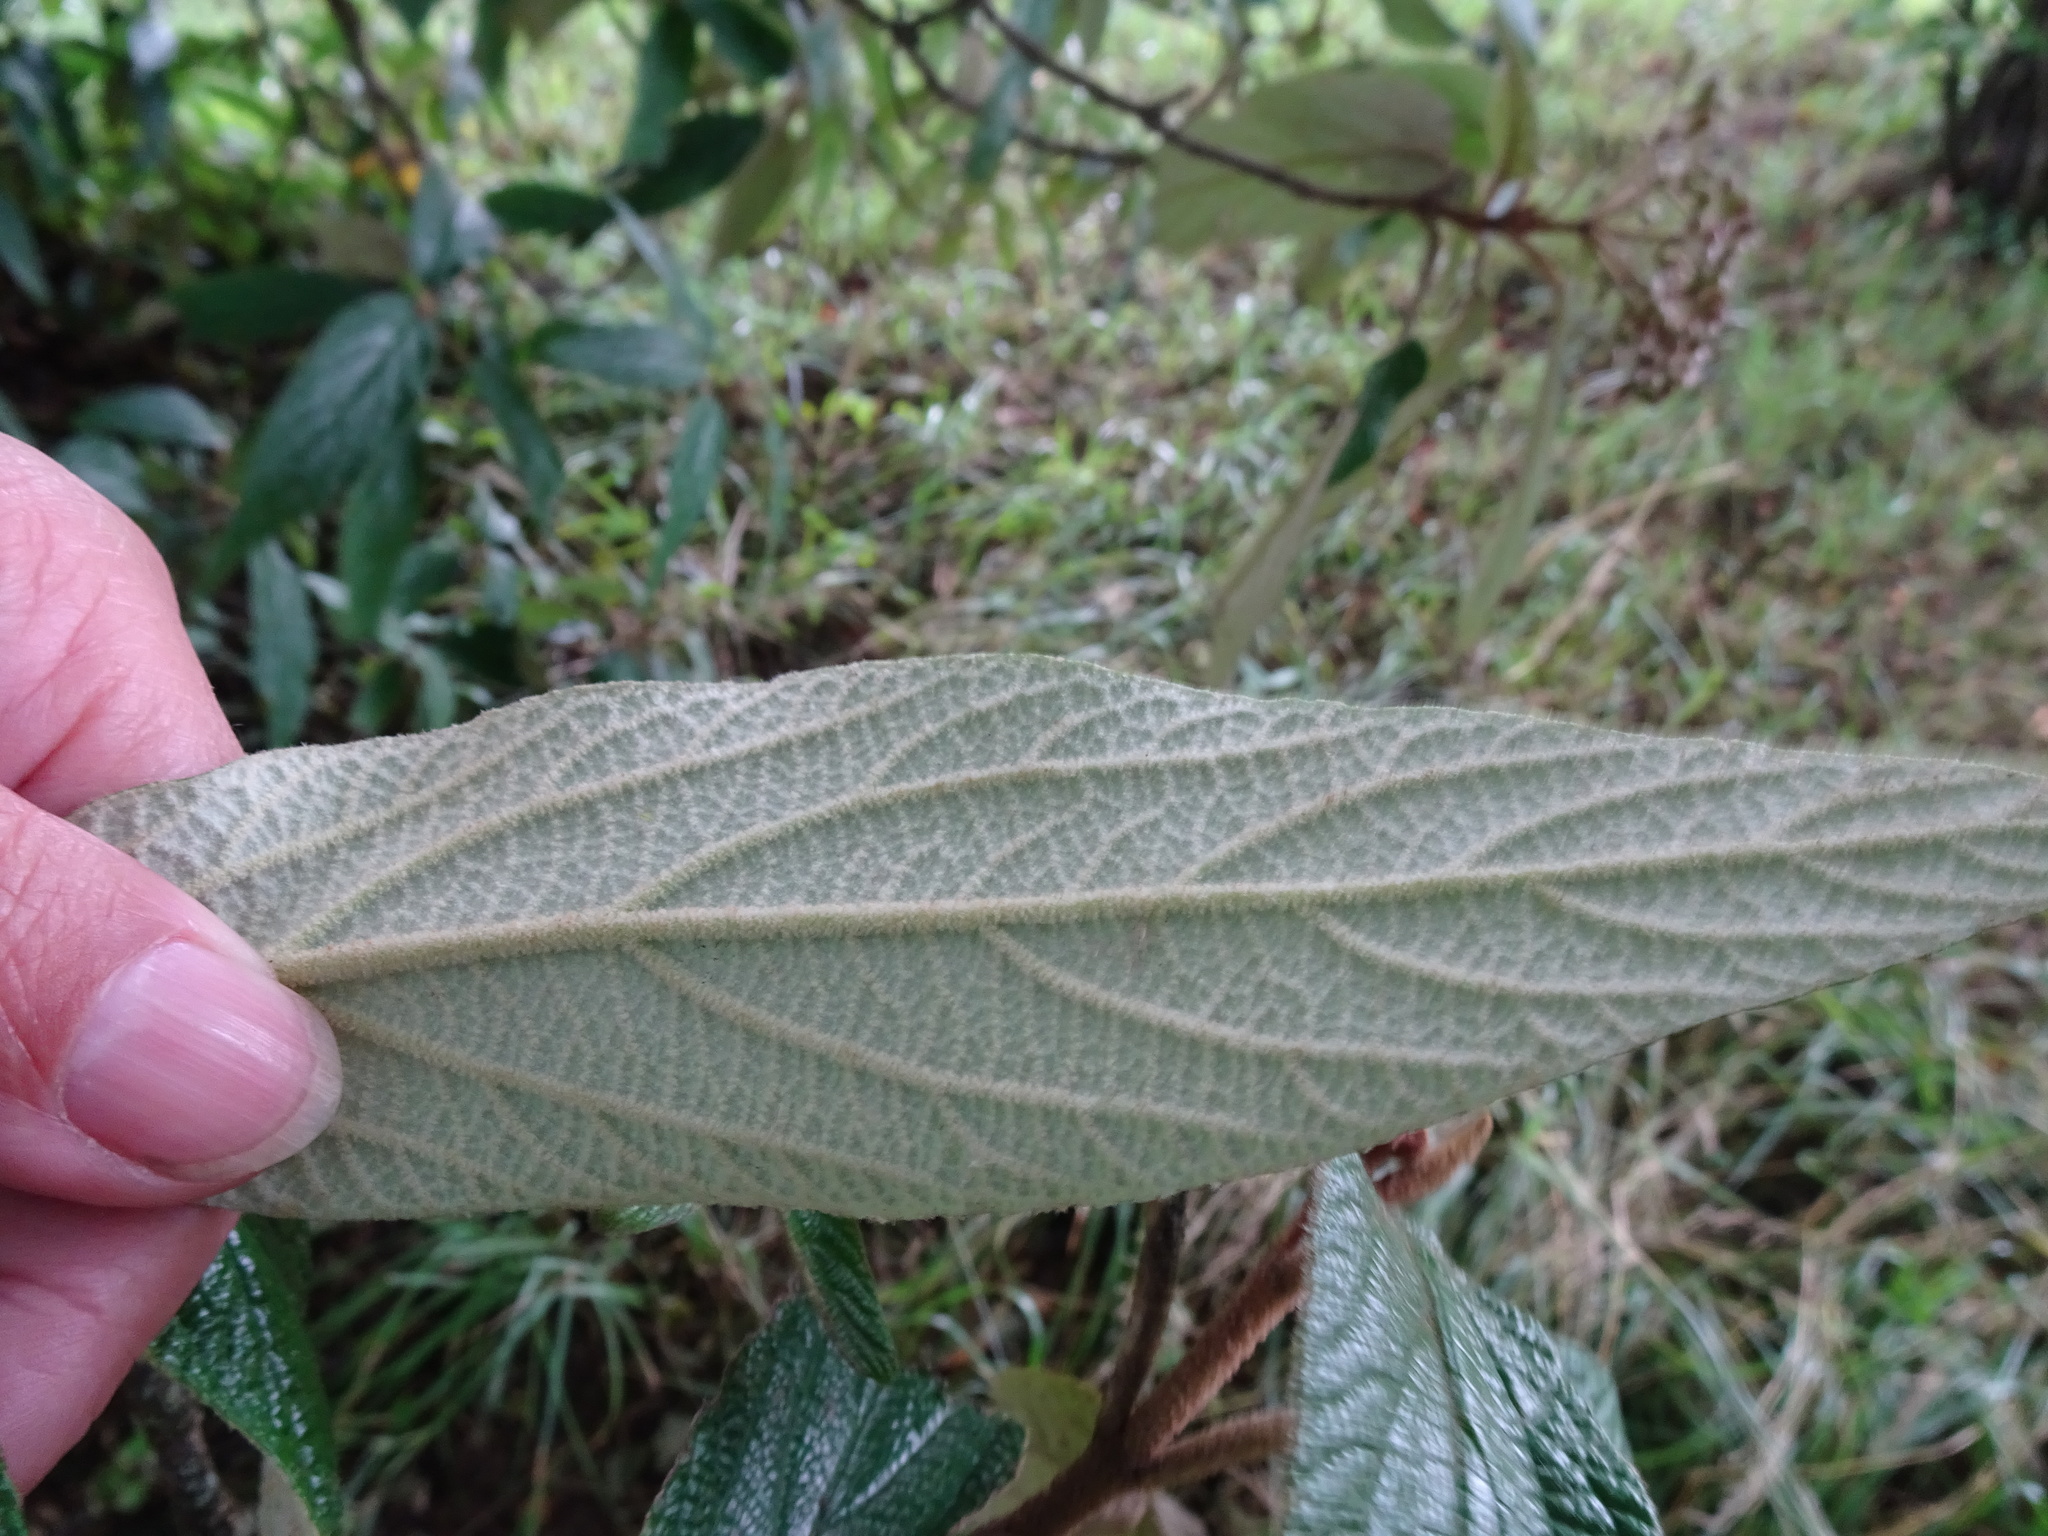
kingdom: Plantae
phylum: Tracheophyta
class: Magnoliopsida
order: Dipsacales
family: Viburnaceae
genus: Viburnum
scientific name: Viburnum rhytidophyllum
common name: Wrinkled viburnum
